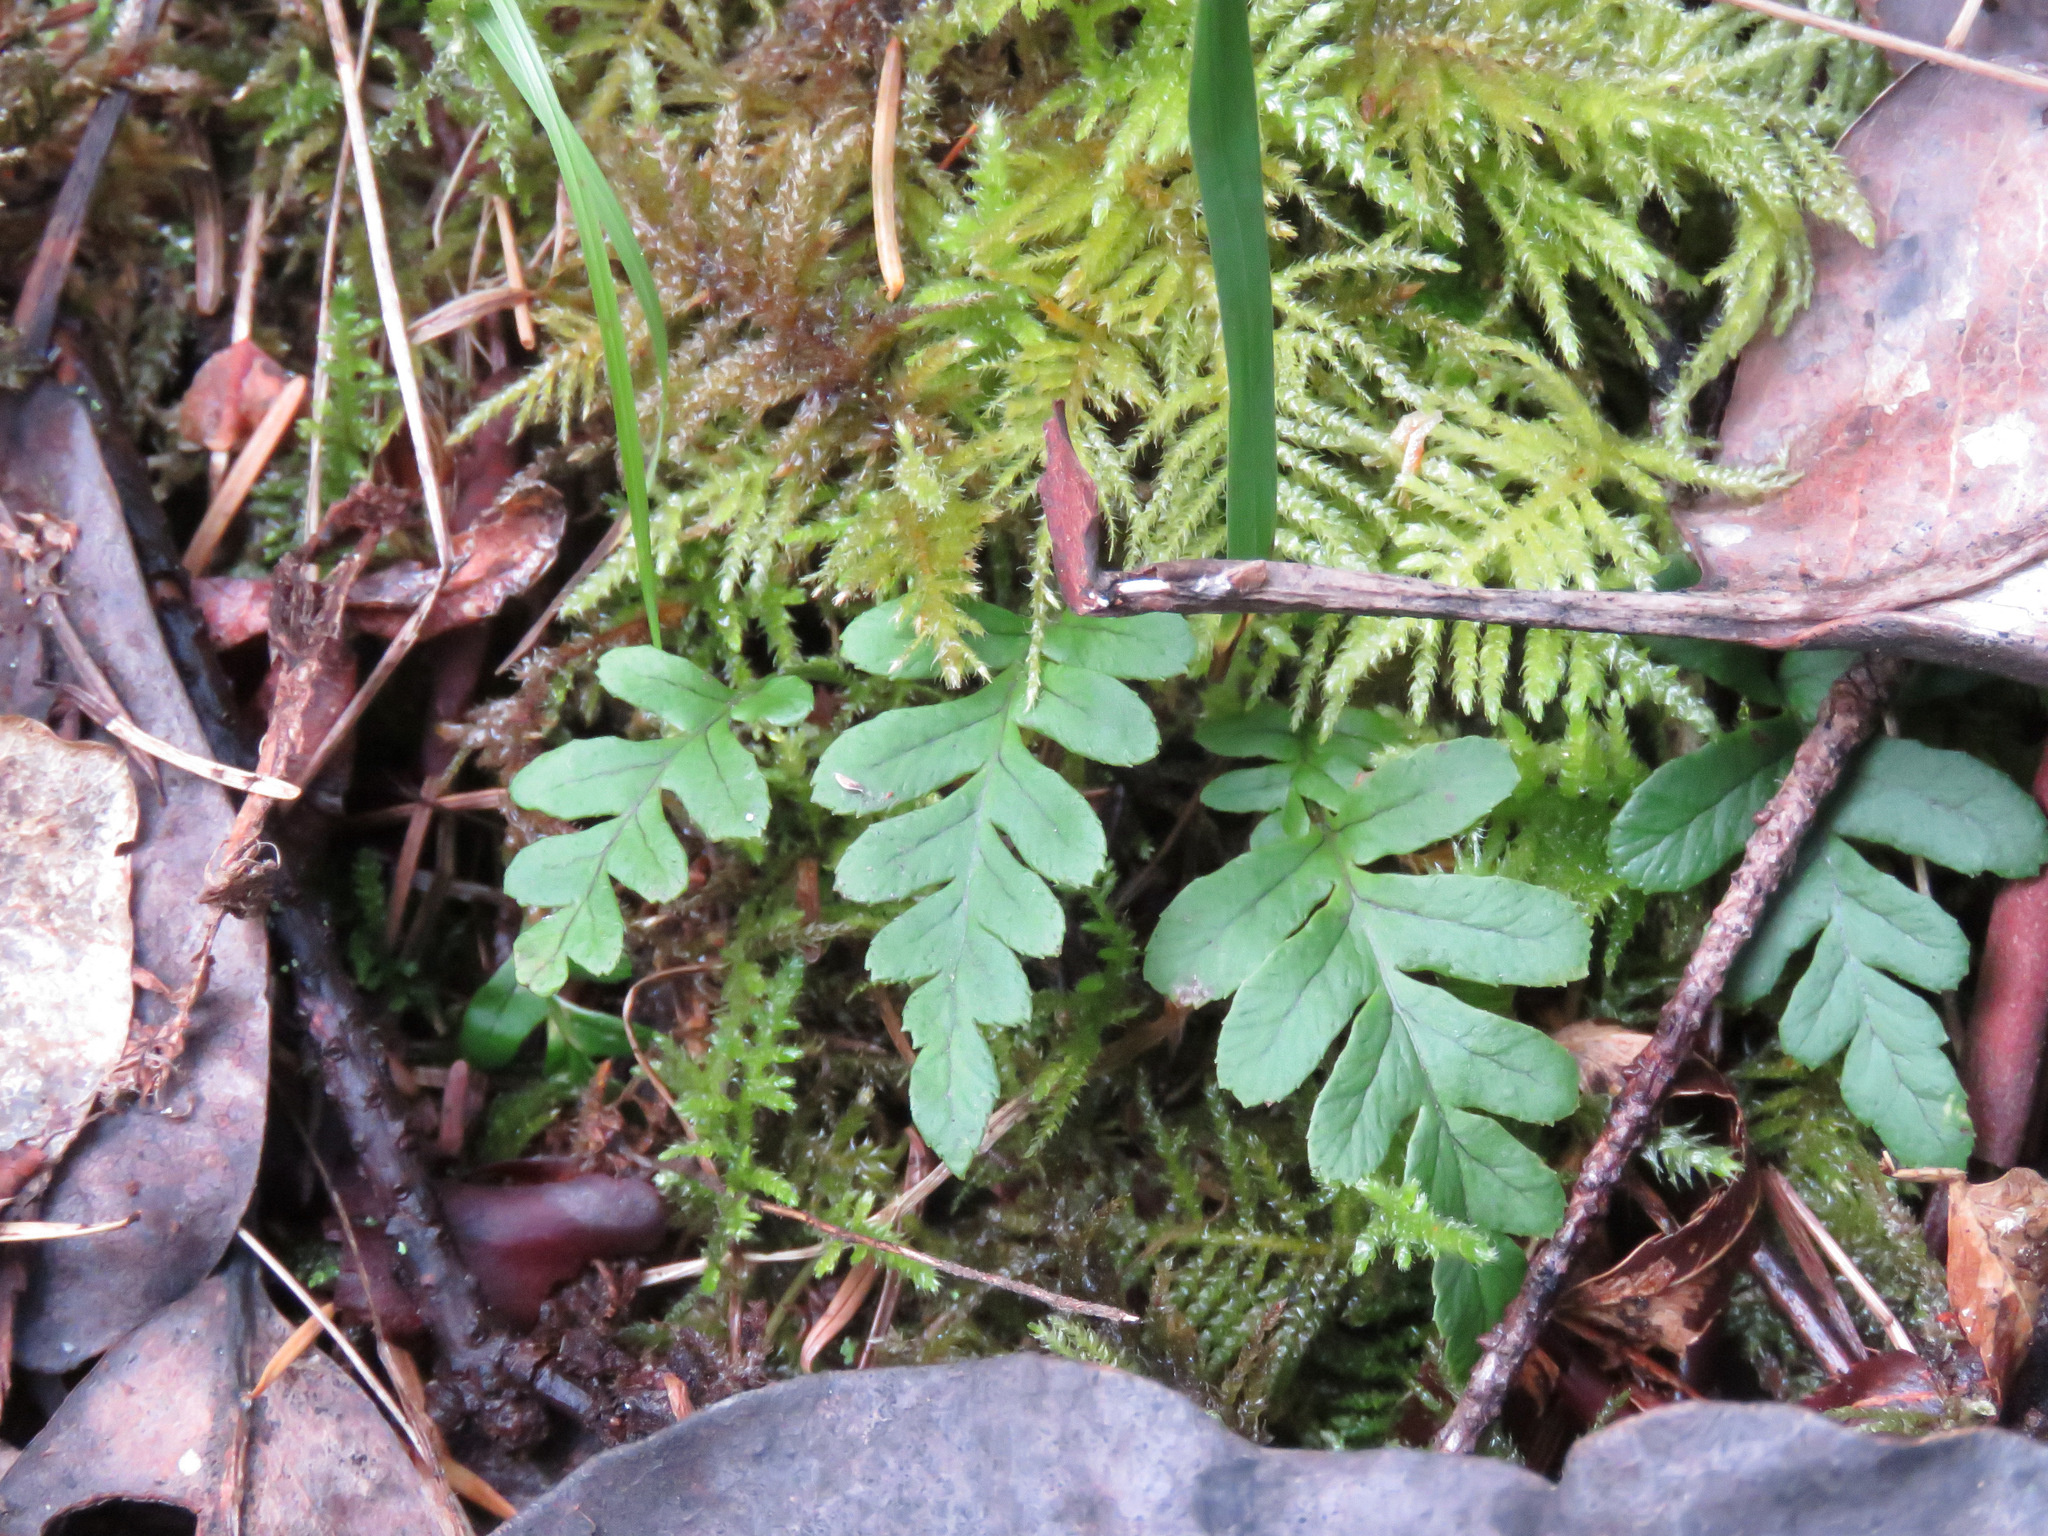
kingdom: Plantae
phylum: Tracheophyta
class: Polypodiopsida
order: Polypodiales
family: Polypodiaceae
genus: Polypodium
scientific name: Polypodium glycyrrhiza
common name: Licorice fern
